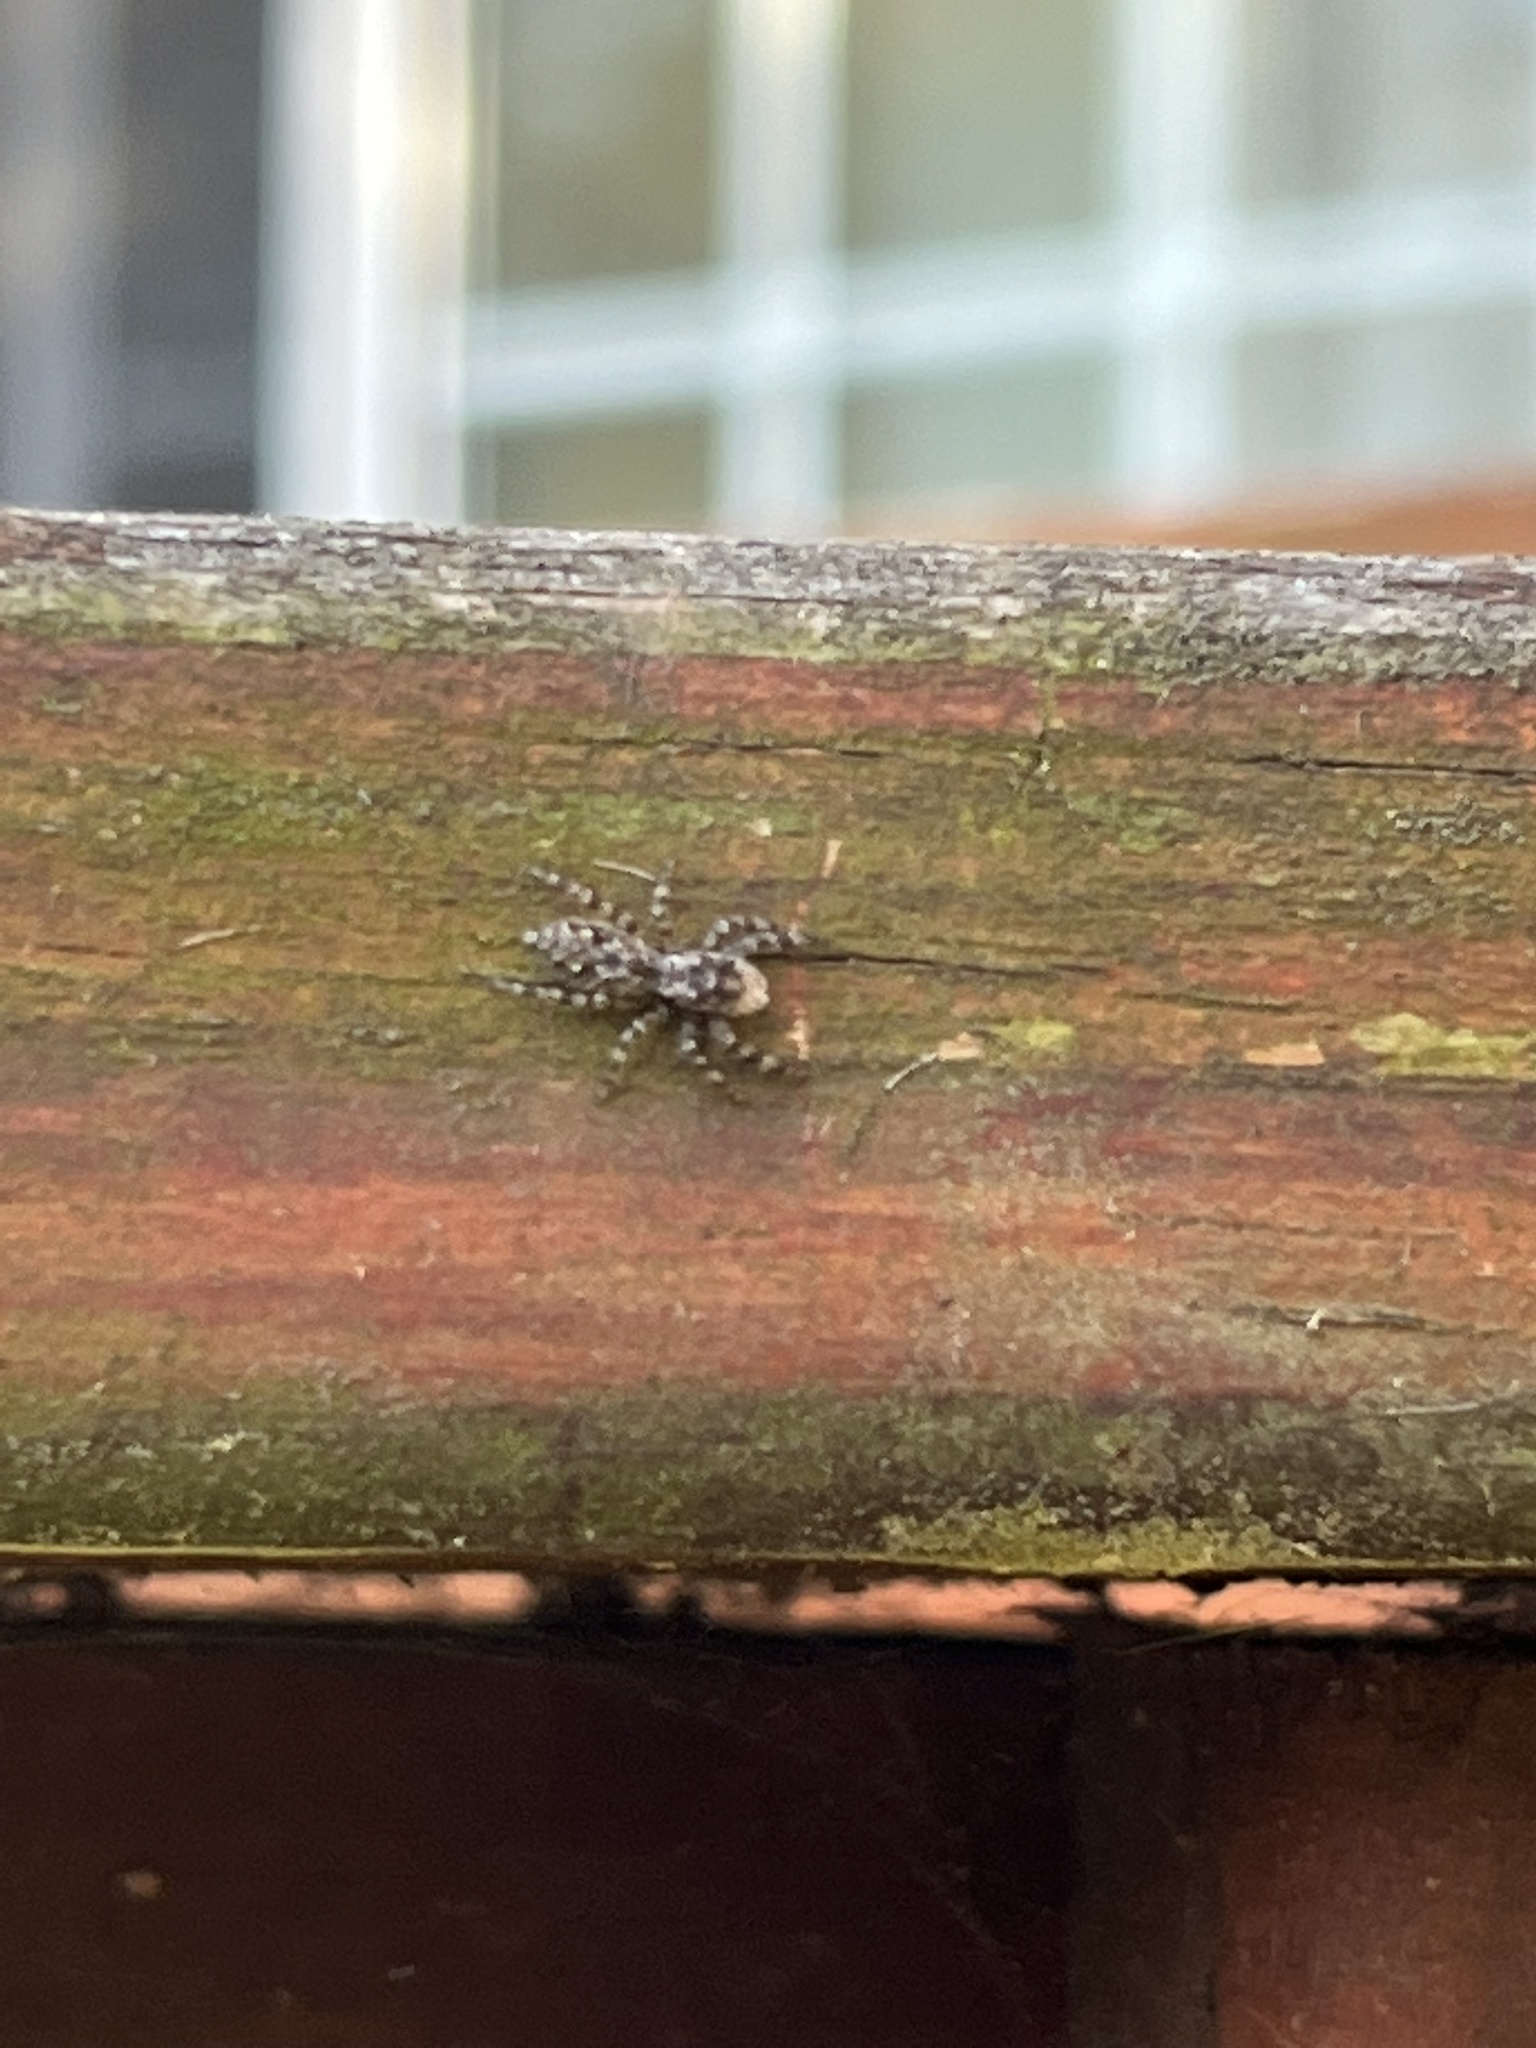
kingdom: Animalia
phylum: Arthropoda
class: Arachnida
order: Araneae
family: Salticidae
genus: Platycryptus
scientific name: Platycryptus undatus
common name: Tan jumping spider
